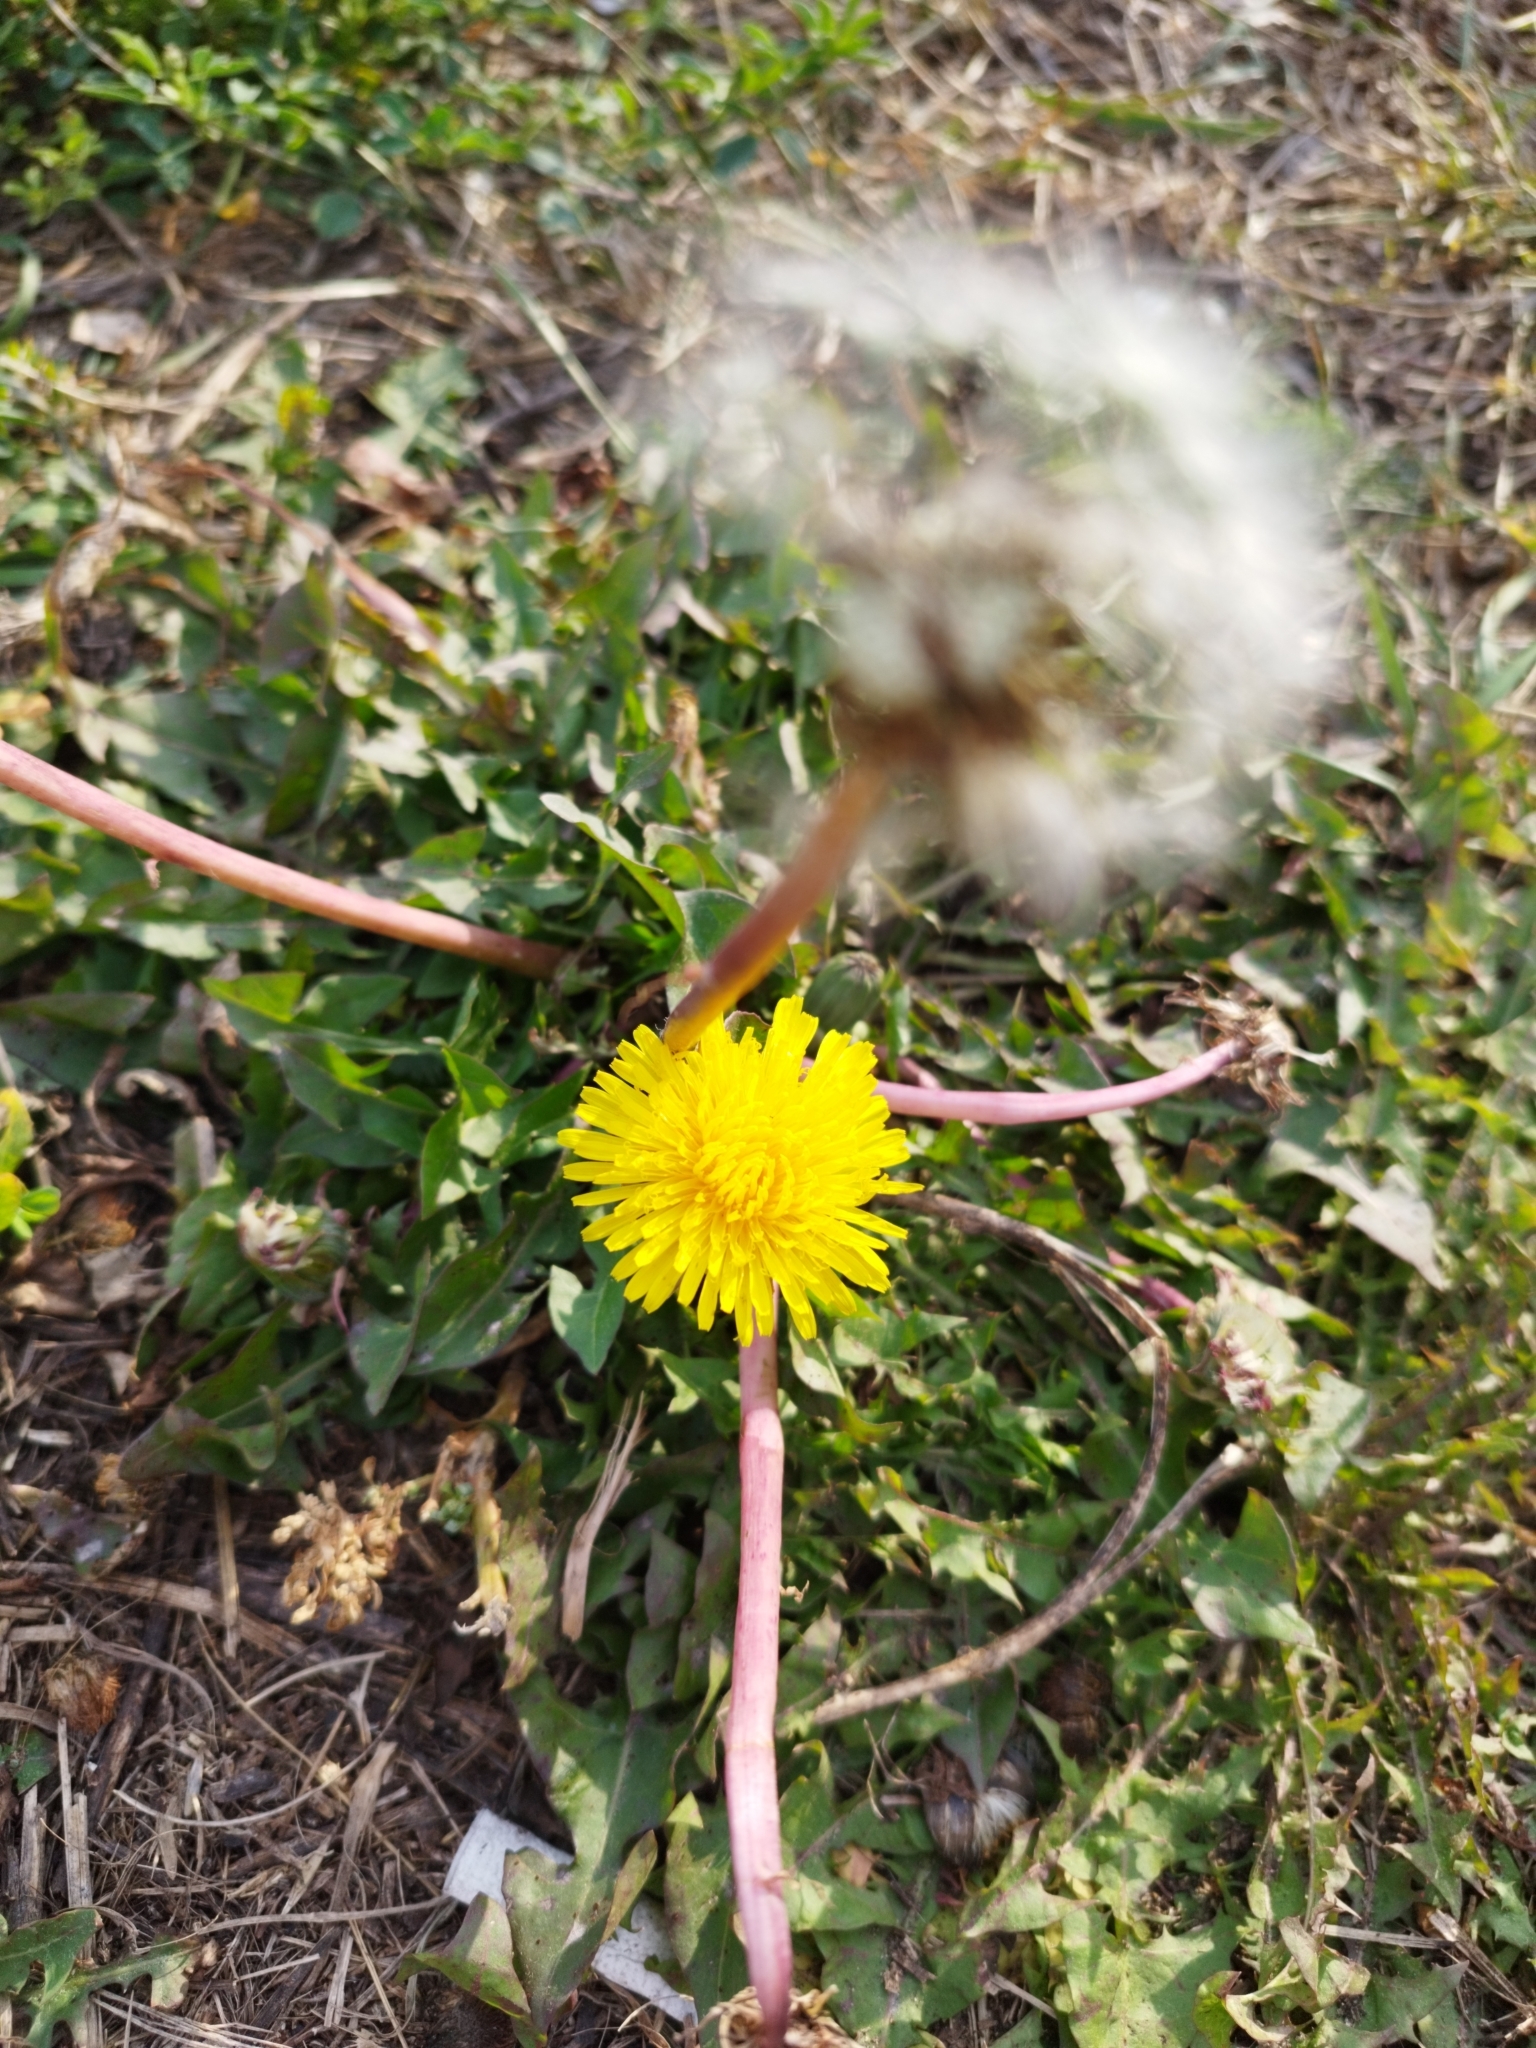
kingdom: Plantae
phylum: Tracheophyta
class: Magnoliopsida
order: Asterales
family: Asteraceae
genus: Taraxacum
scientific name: Taraxacum officinale
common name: Common dandelion
